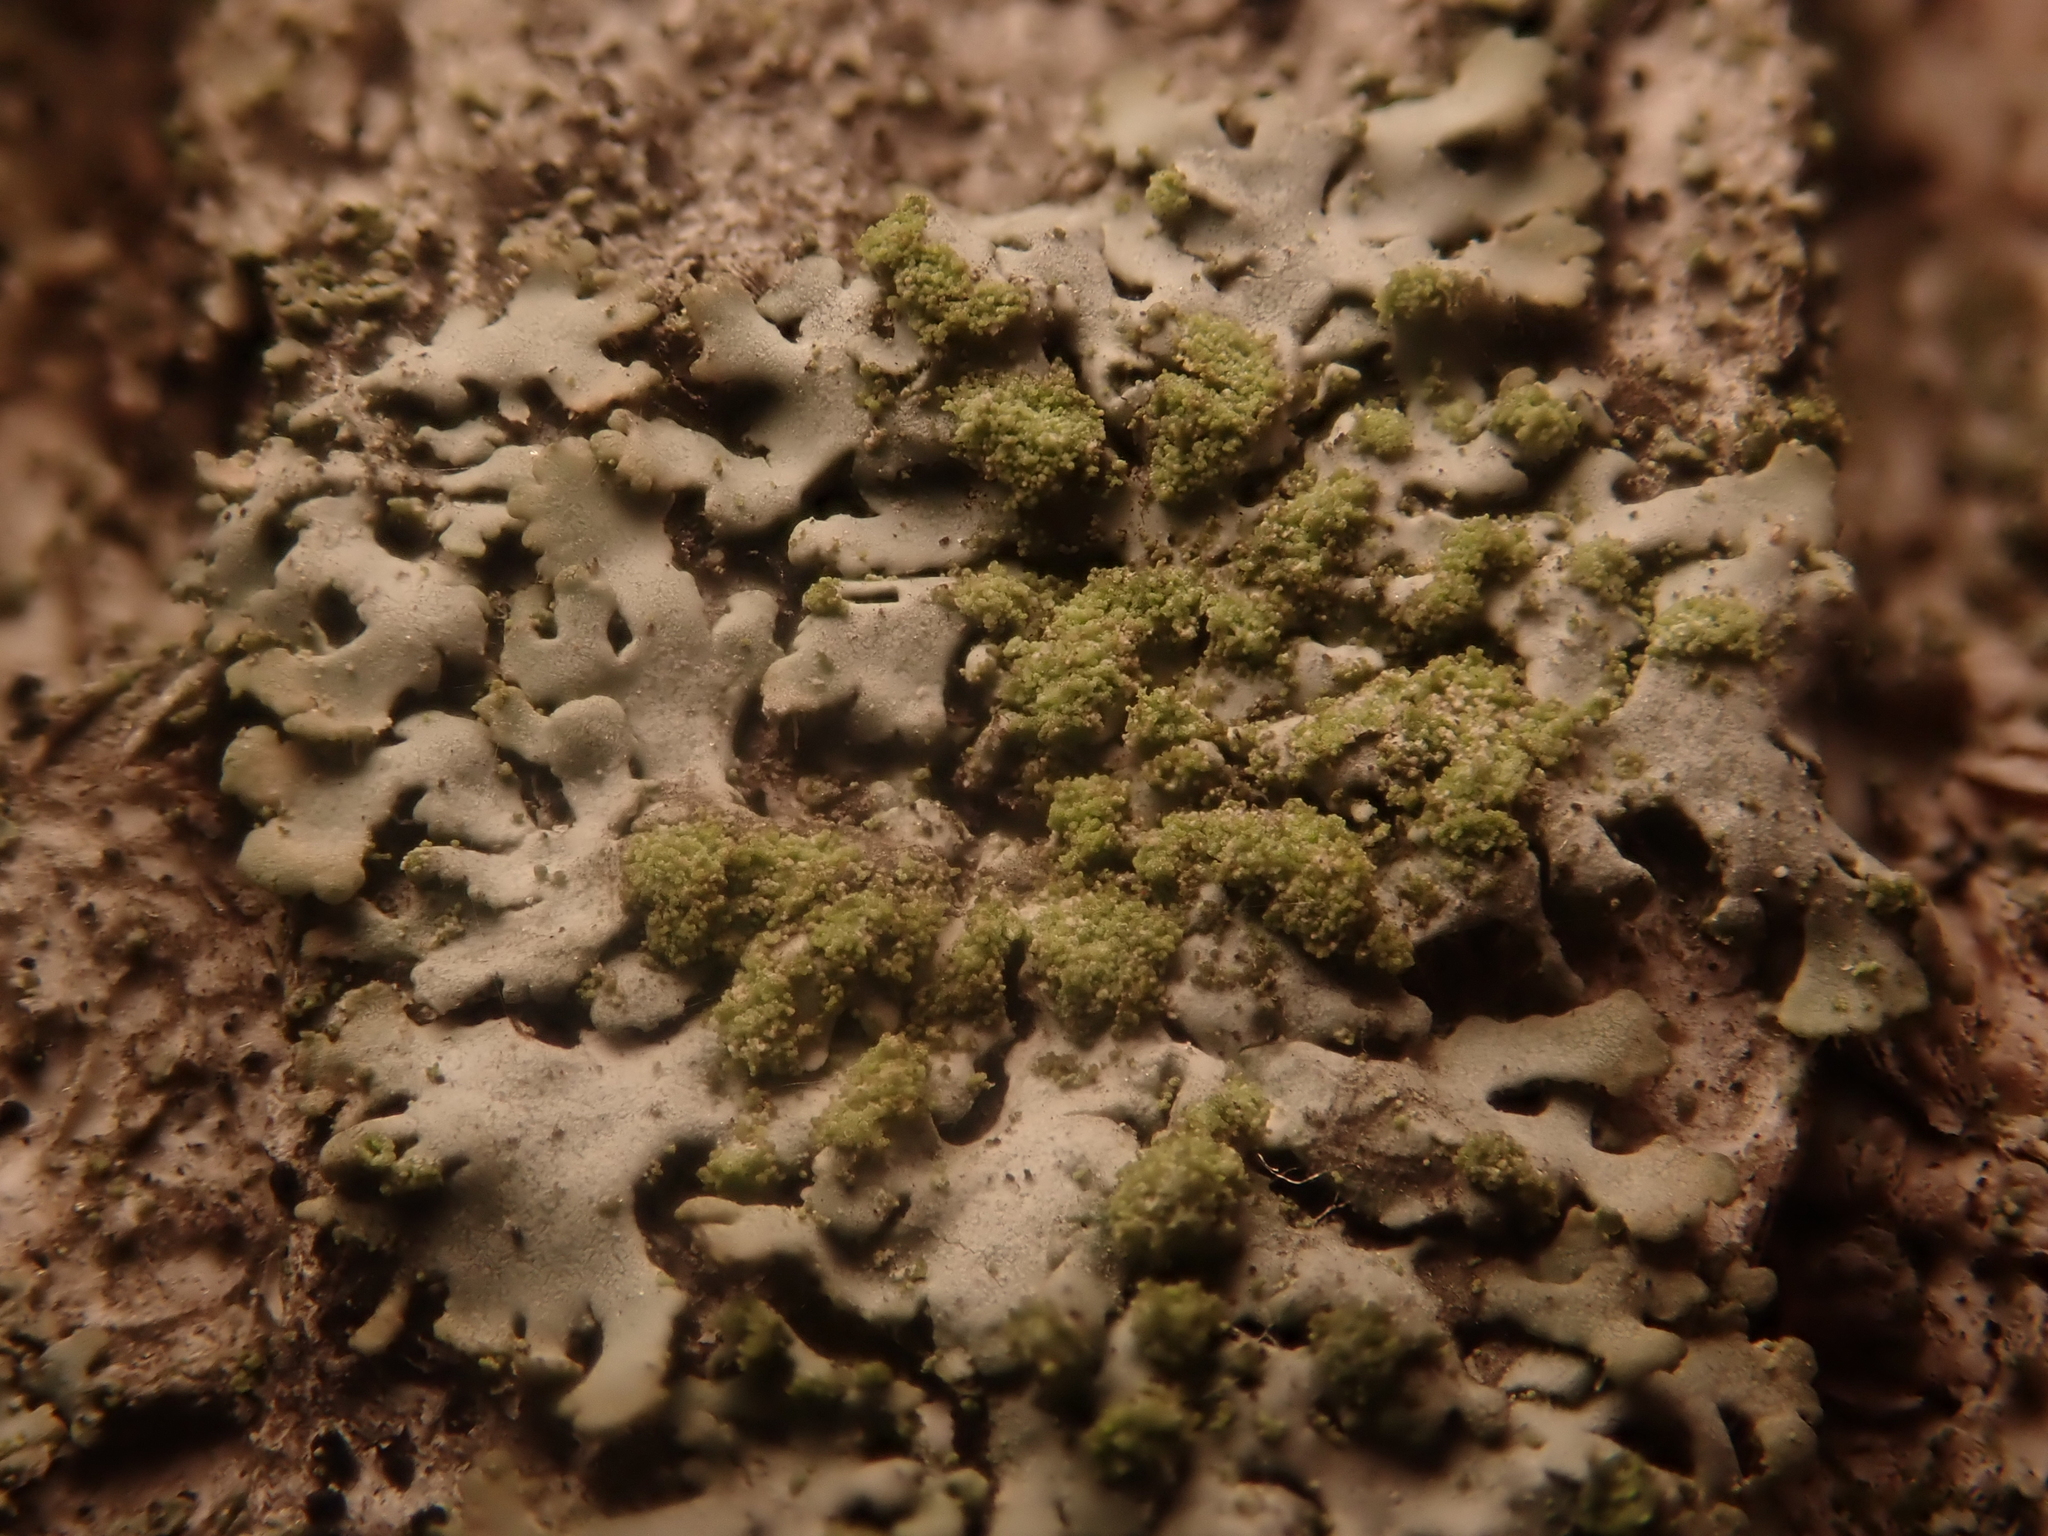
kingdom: Fungi
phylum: Ascomycota
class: Lecanoromycetes
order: Caliciales
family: Physciaceae
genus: Phaeophyscia
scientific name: Phaeophyscia orbicularis
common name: Mealy shadow lichen
